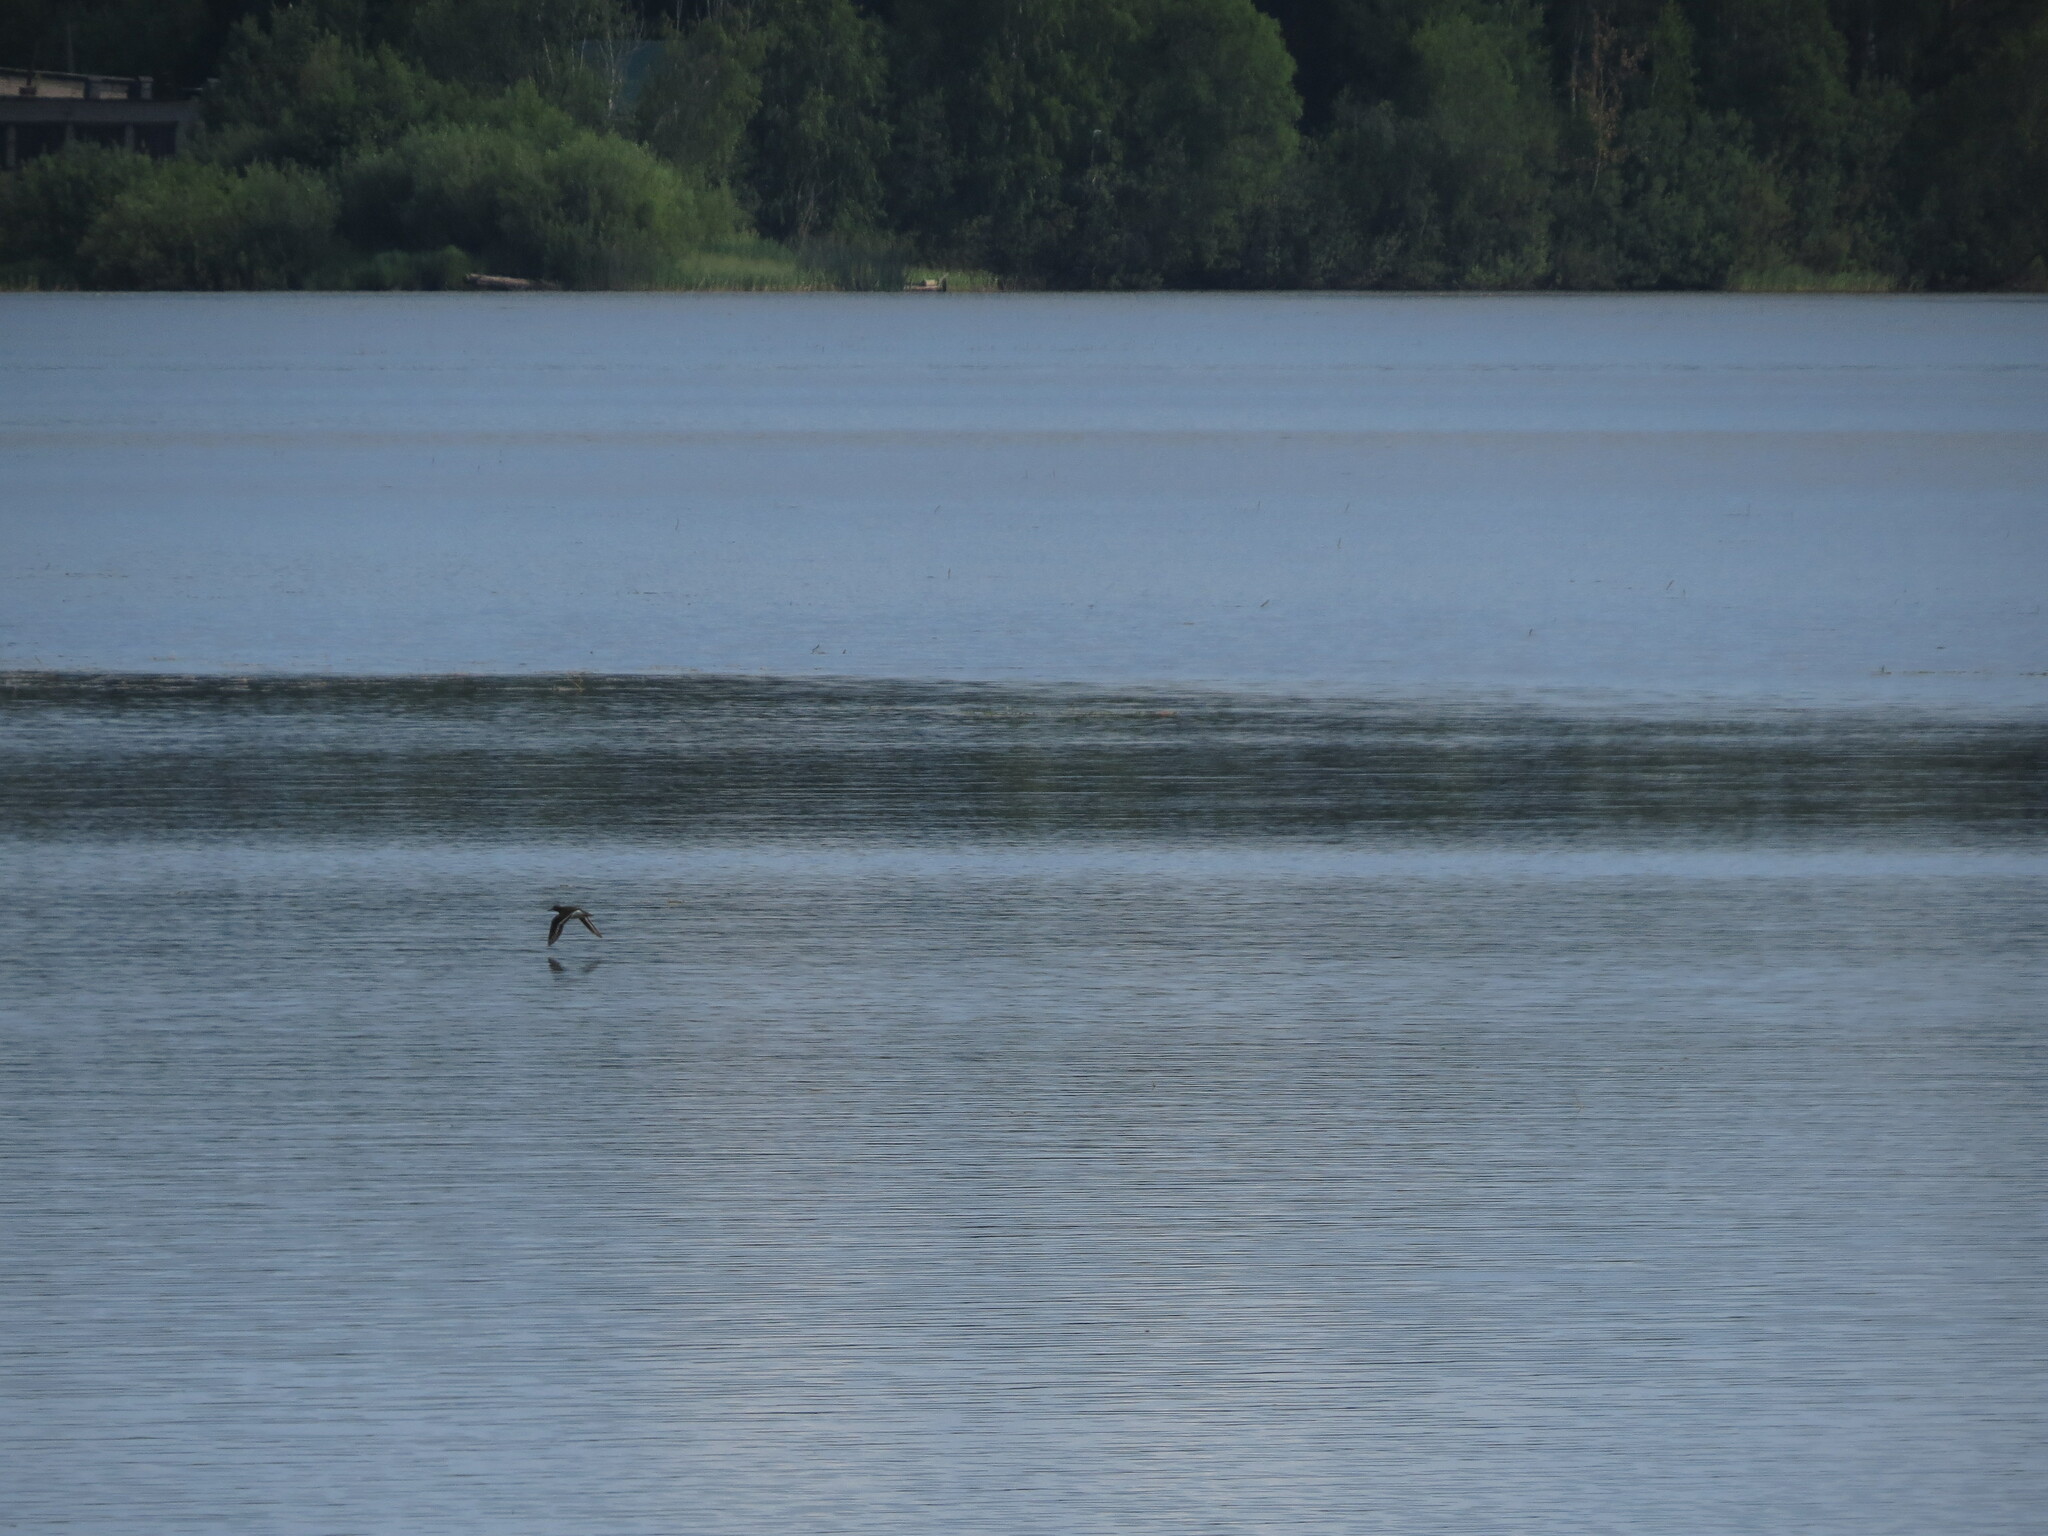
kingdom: Animalia
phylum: Chordata
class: Aves
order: Charadriiformes
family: Scolopacidae
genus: Actitis
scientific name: Actitis hypoleucos
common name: Common sandpiper
